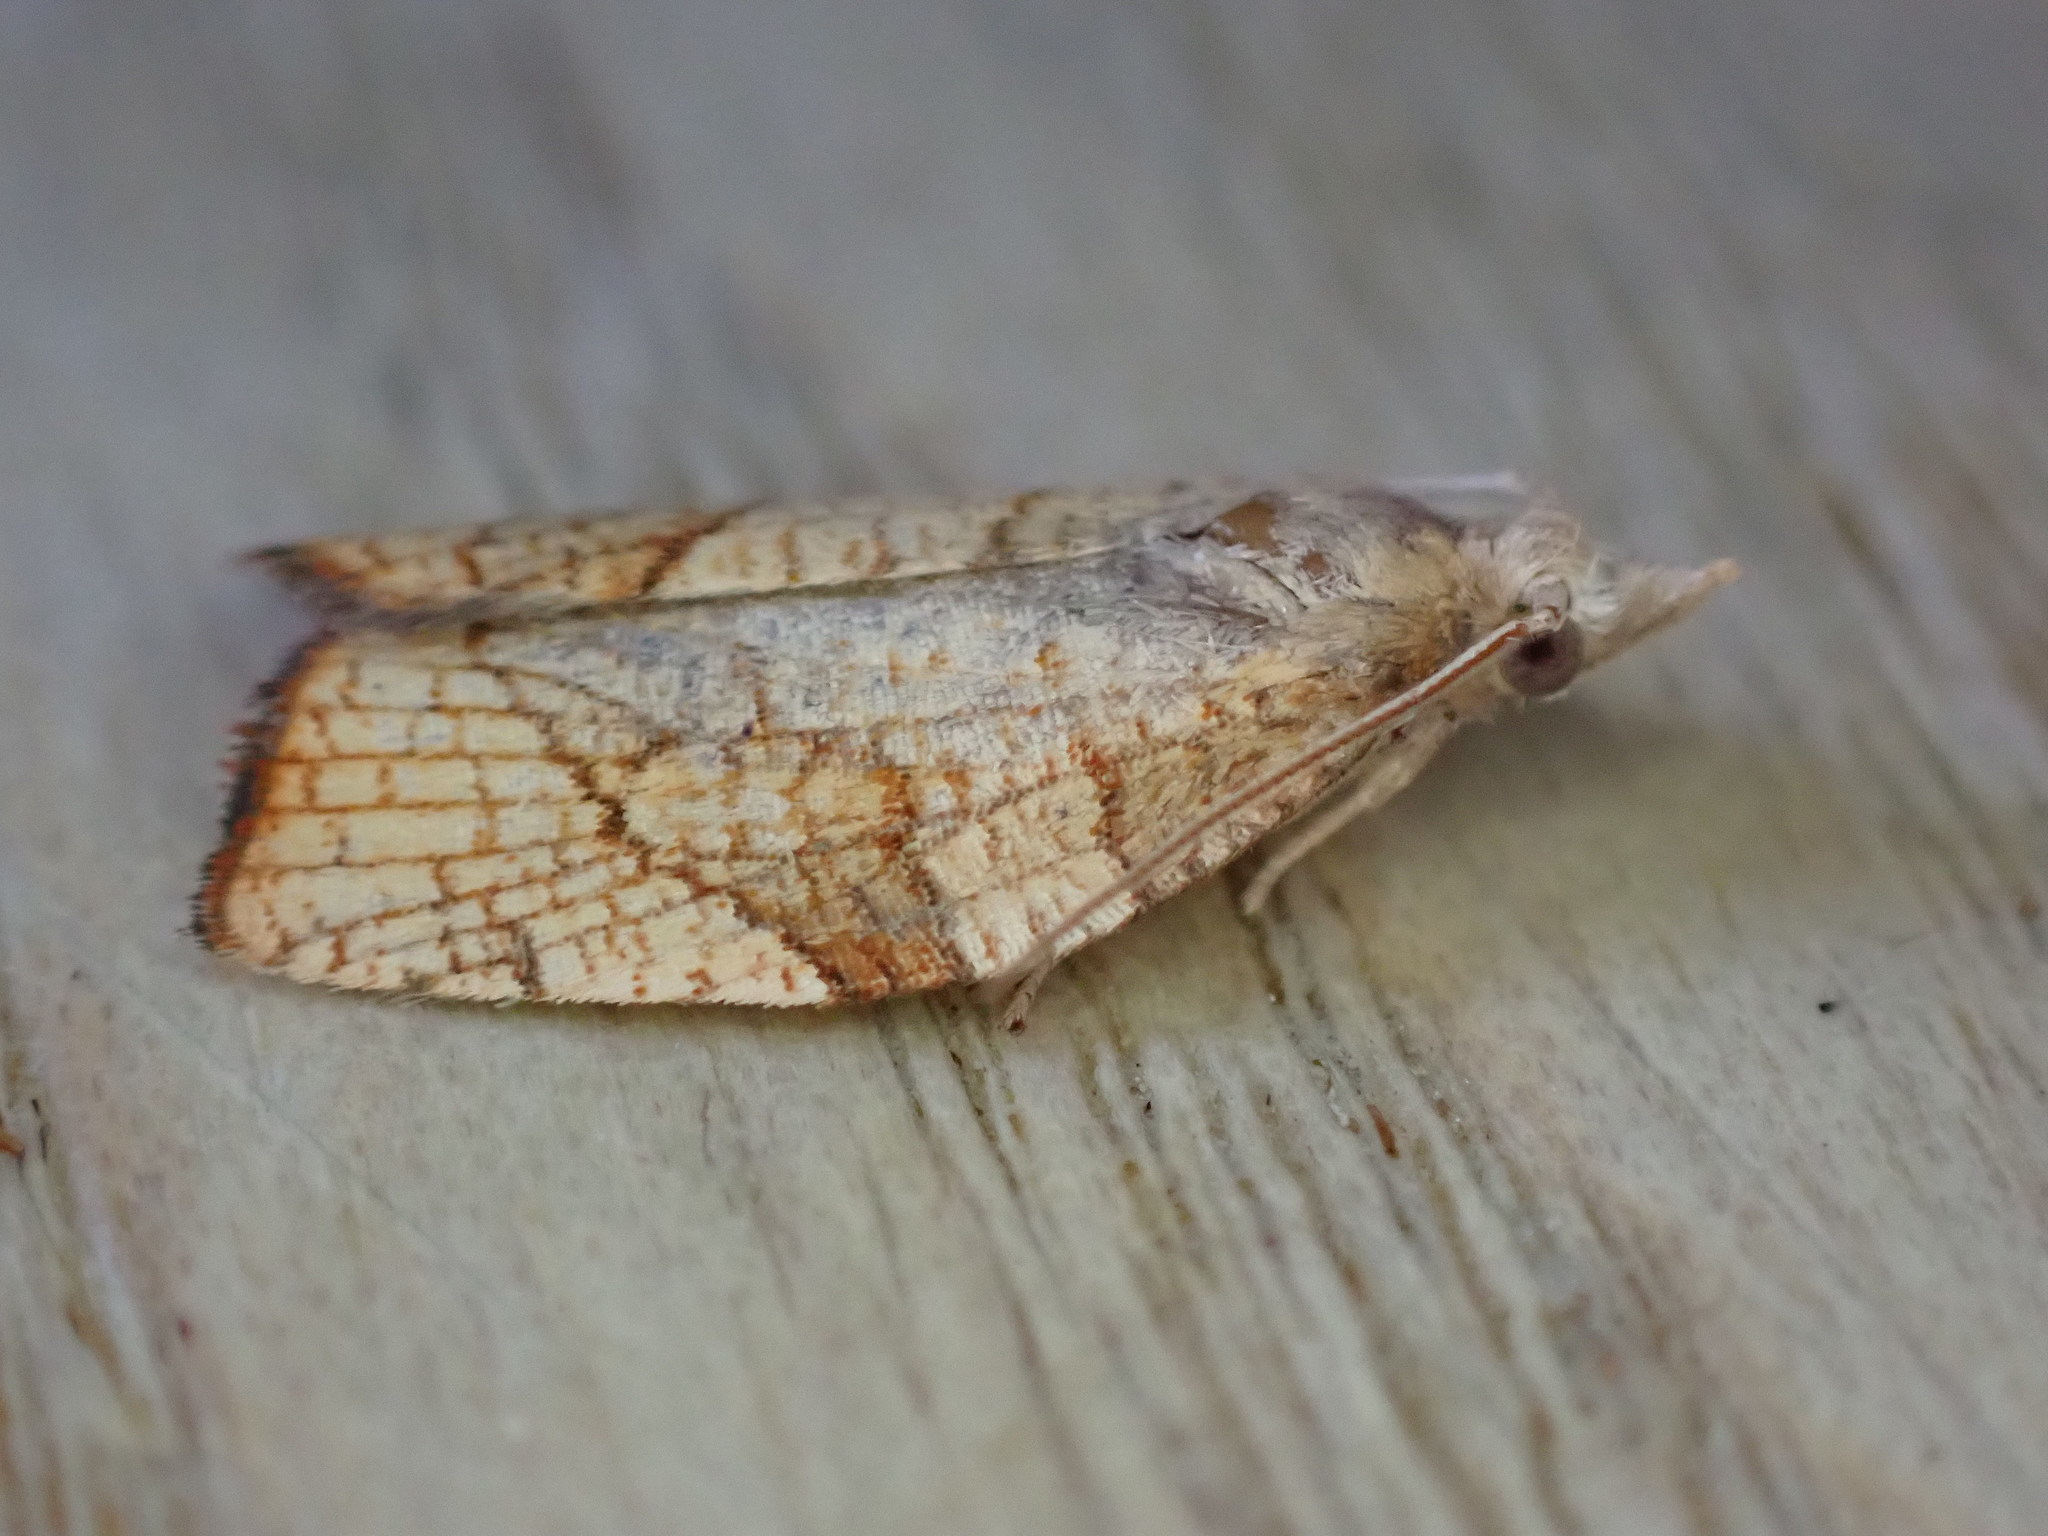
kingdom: Animalia
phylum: Arthropoda
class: Insecta
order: Lepidoptera
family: Tortricidae
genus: Pandemis
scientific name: Pandemis corylana
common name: Chequered fruit-tree tortrix
